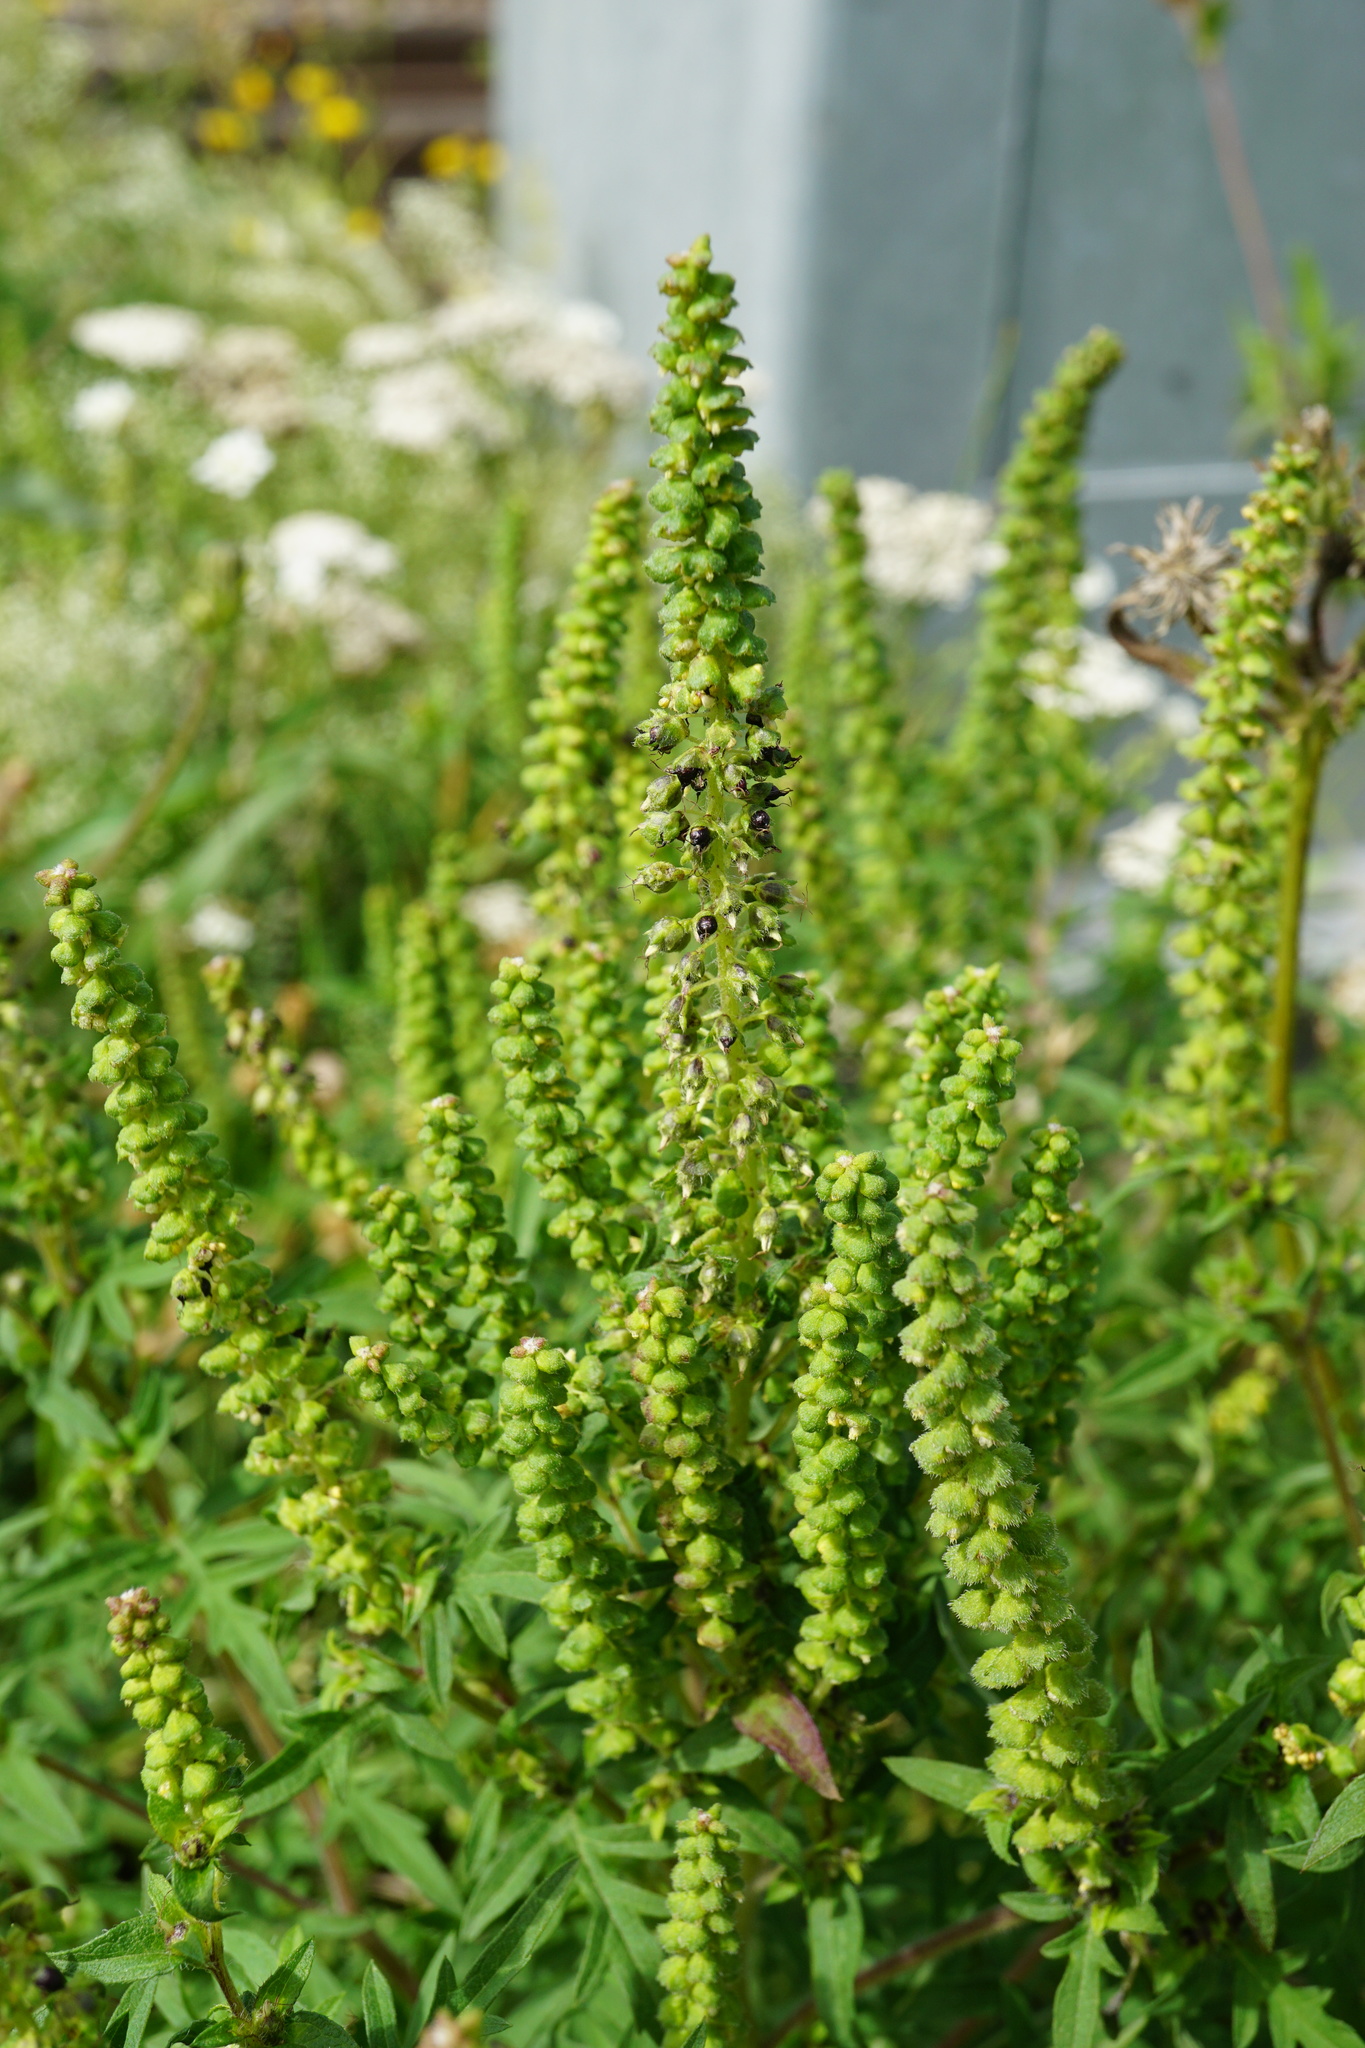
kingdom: Plantae
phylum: Tracheophyta
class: Magnoliopsida
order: Asterales
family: Asteraceae
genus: Ambrosia
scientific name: Ambrosia artemisiifolia
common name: Annual ragweed
